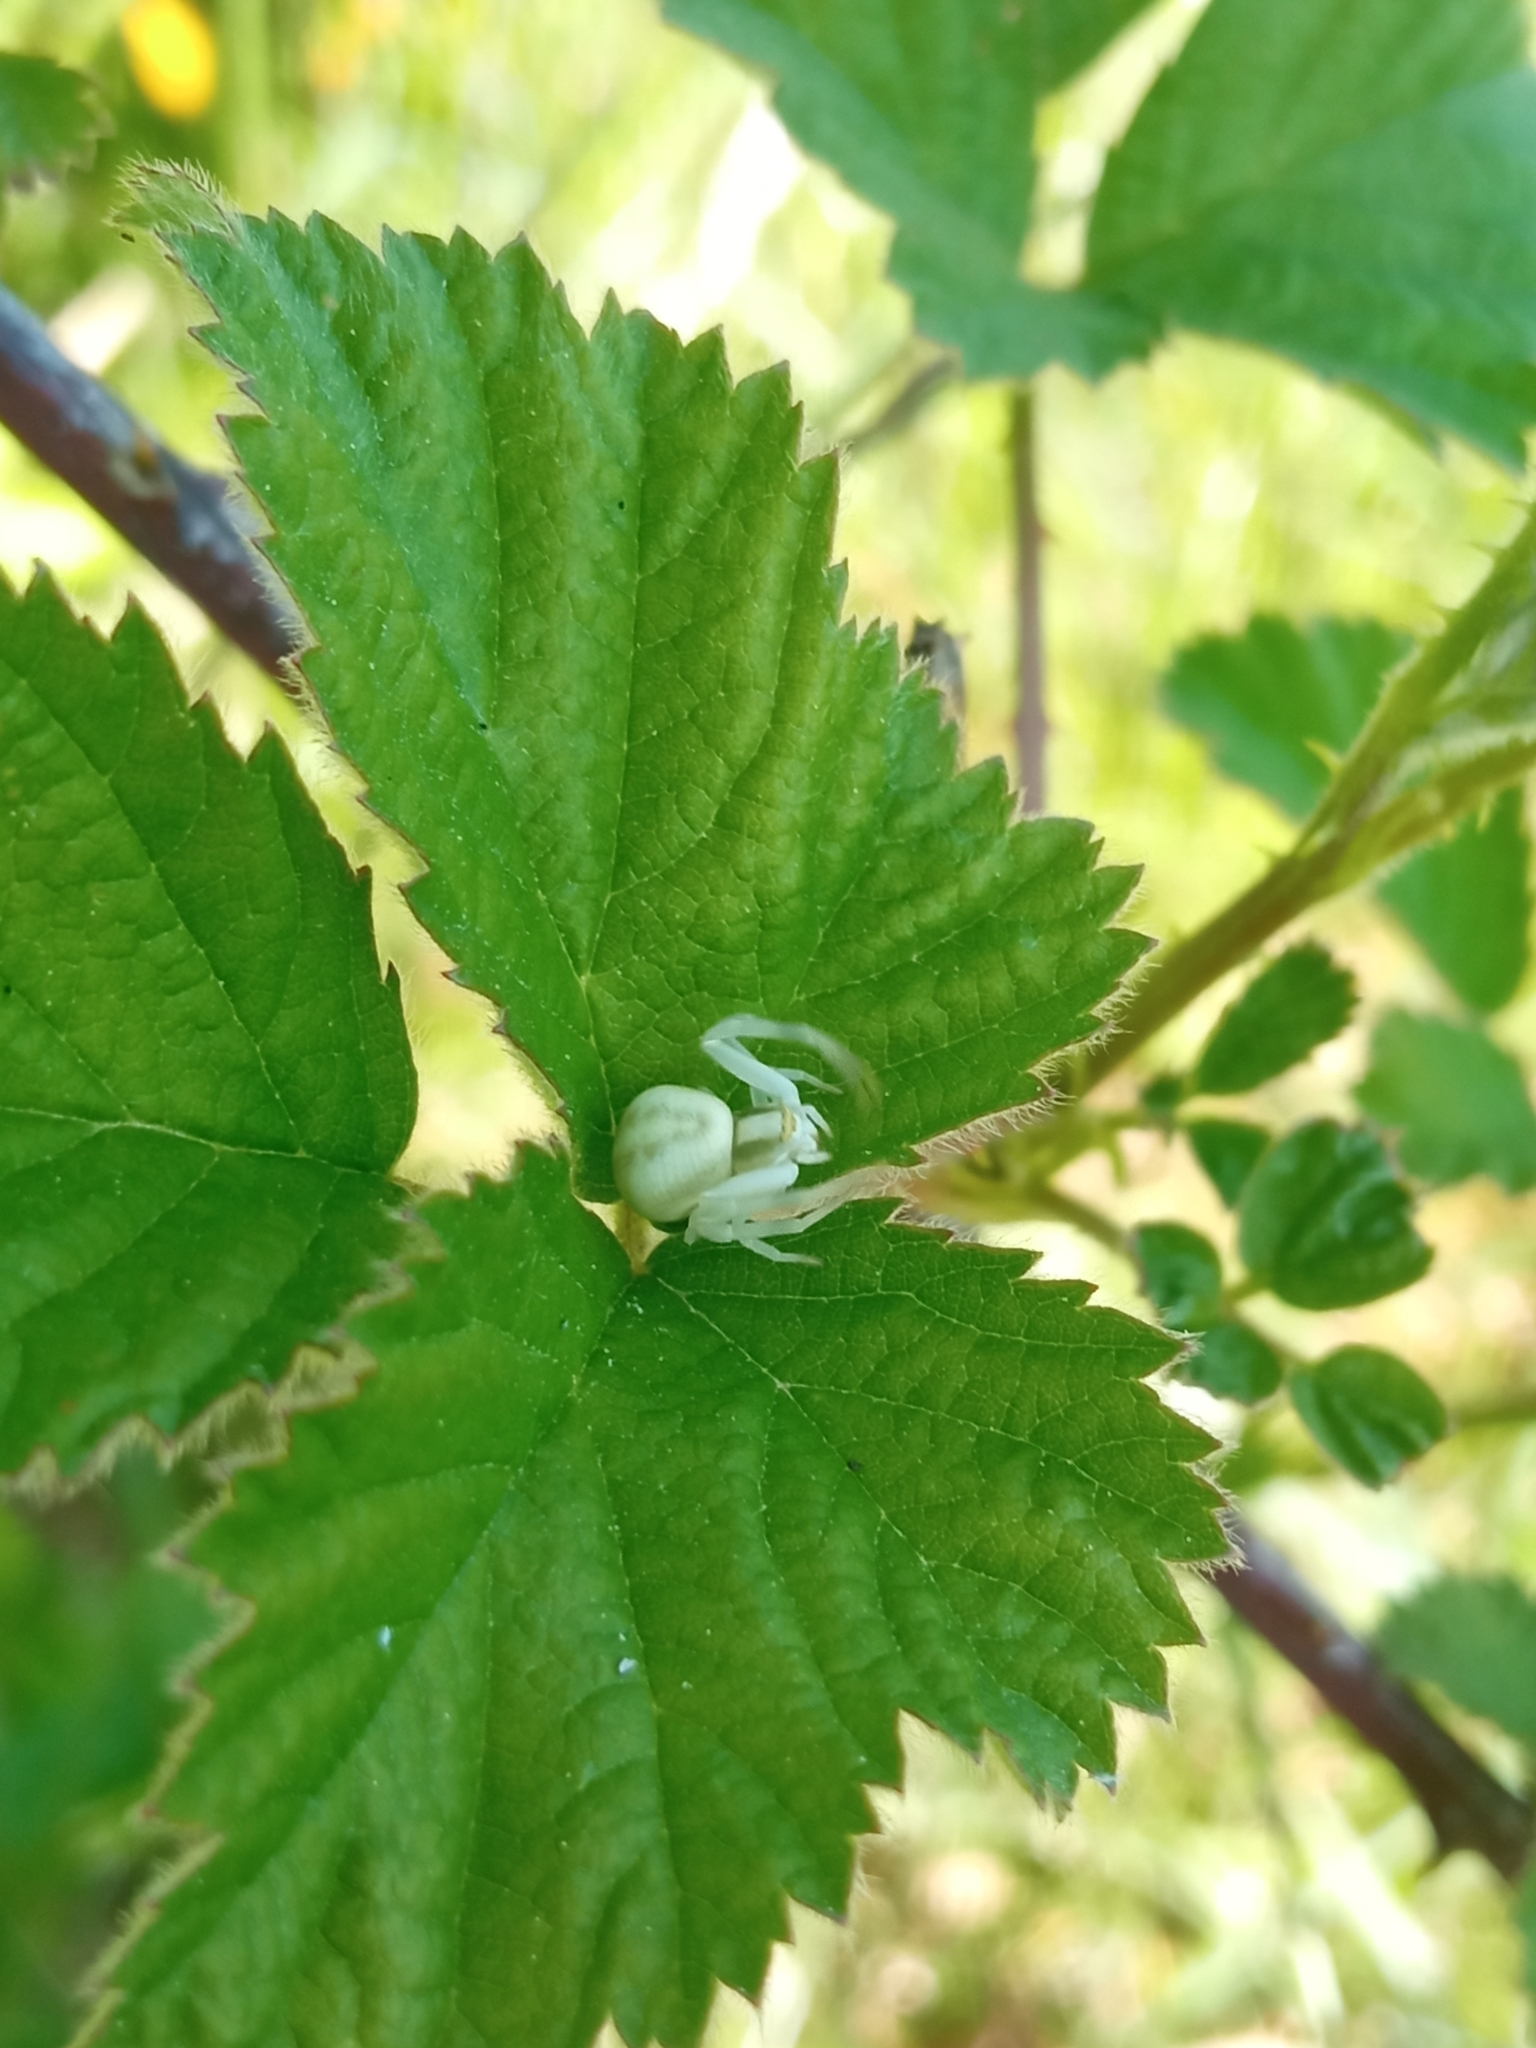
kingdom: Animalia
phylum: Arthropoda
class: Arachnida
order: Araneae
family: Thomisidae
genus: Misumena
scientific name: Misumena vatia
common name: Goldenrod crab spider
